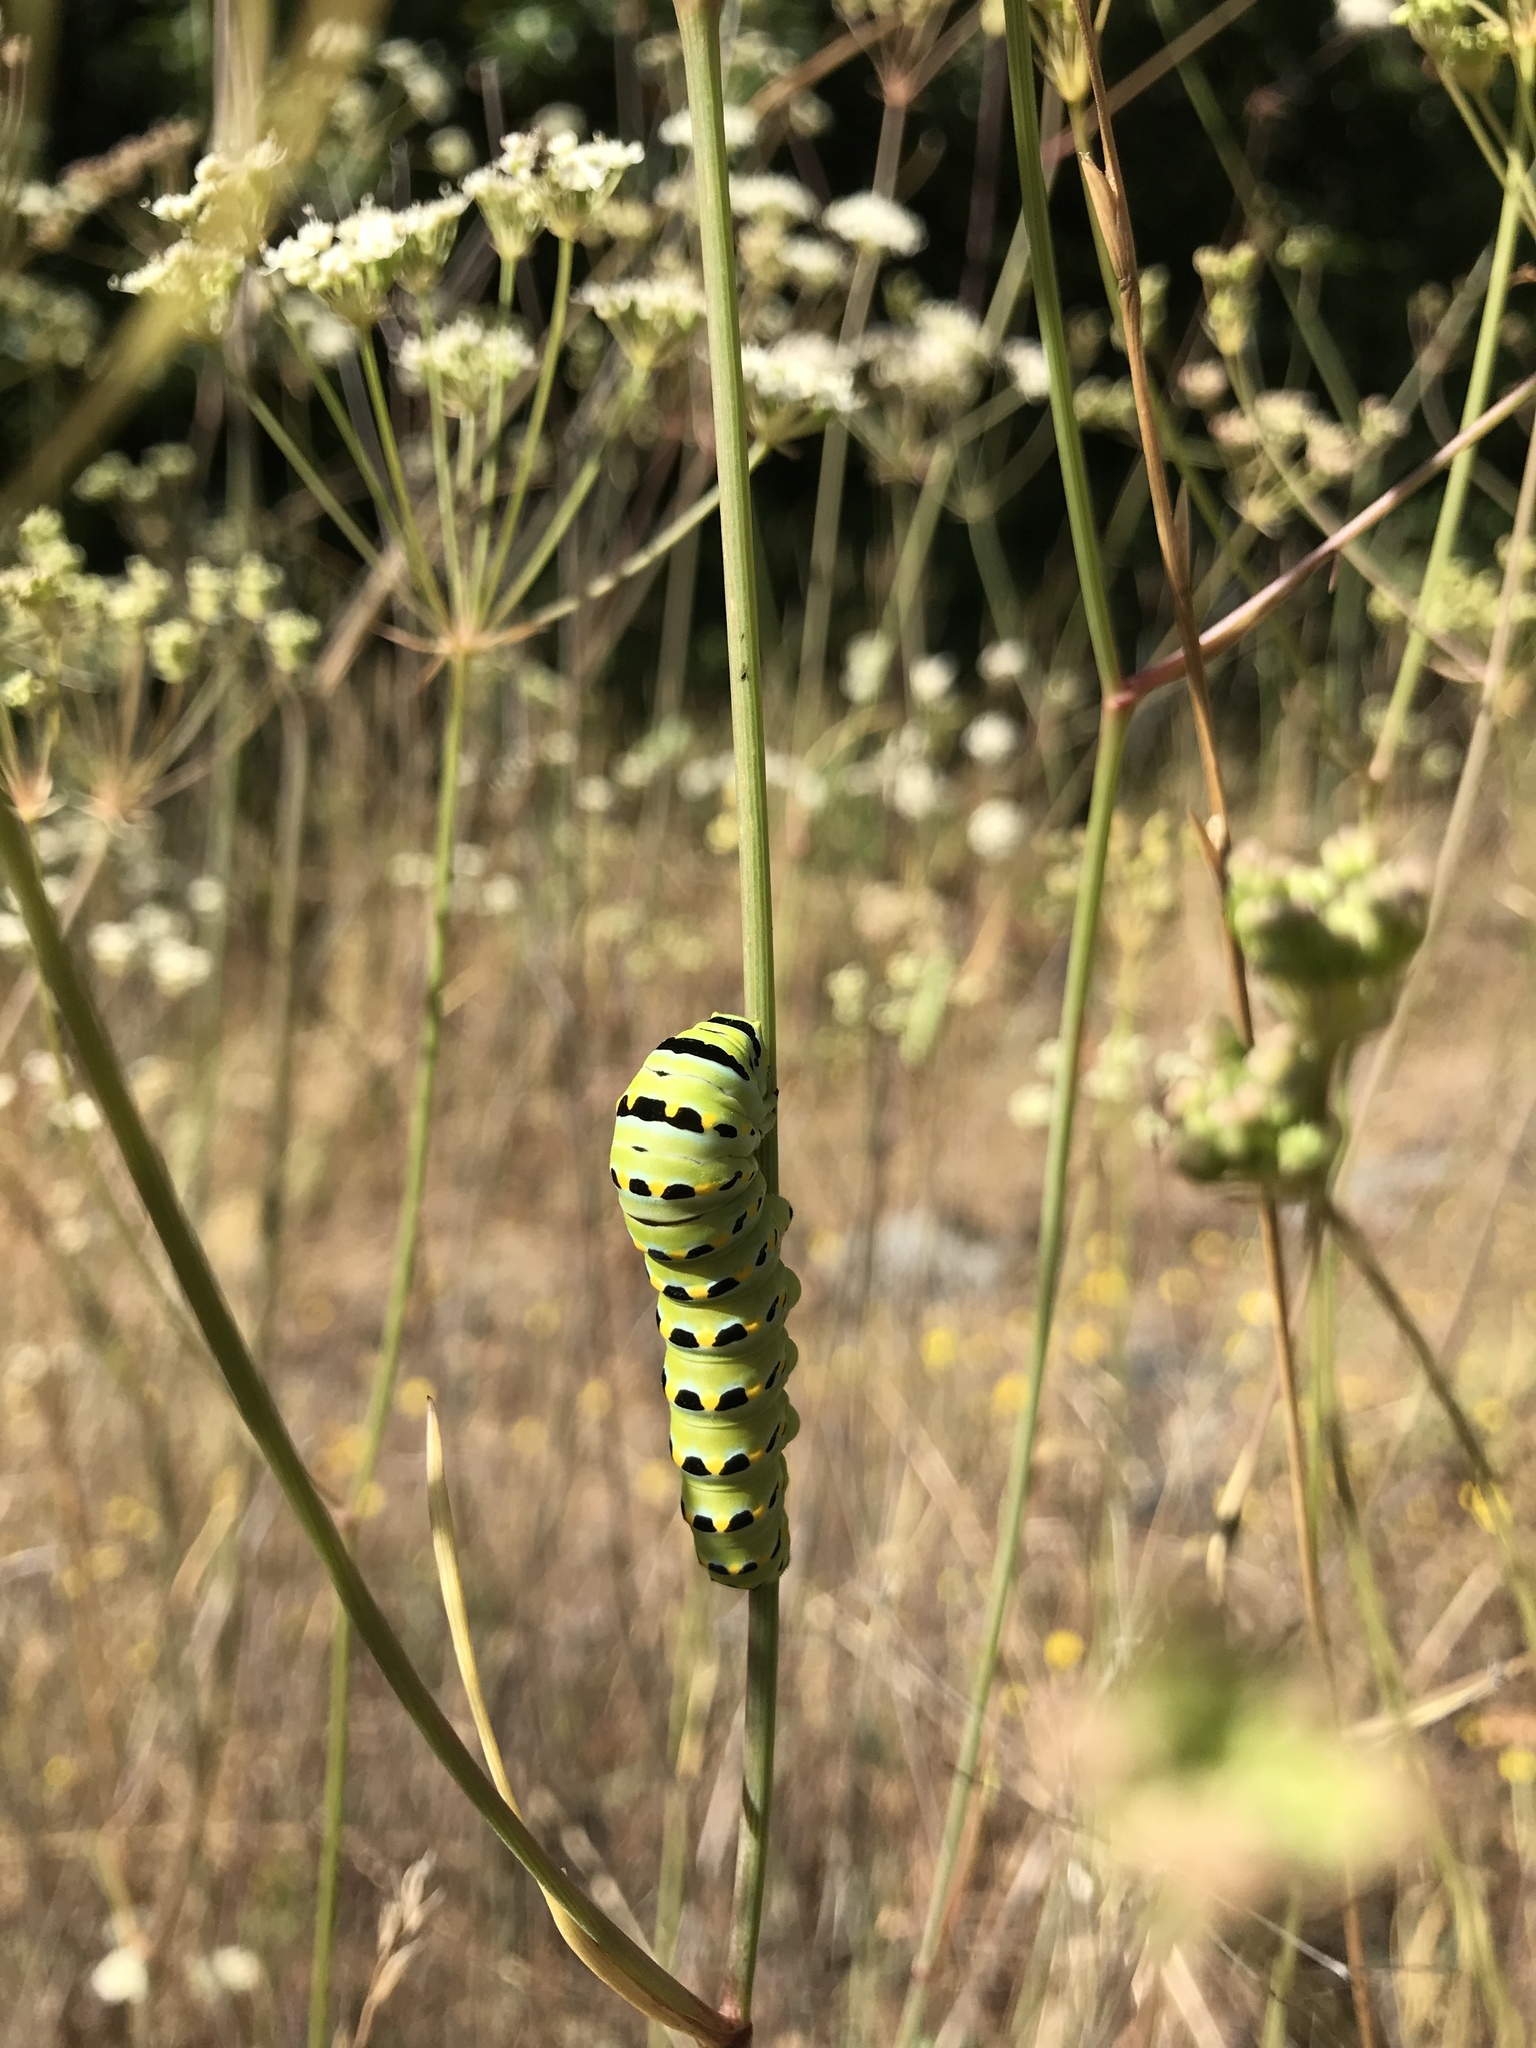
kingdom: Animalia
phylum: Arthropoda
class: Insecta
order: Lepidoptera
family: Papilionidae
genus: Papilio
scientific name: Papilio zelicaon
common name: Anise swallowtail
